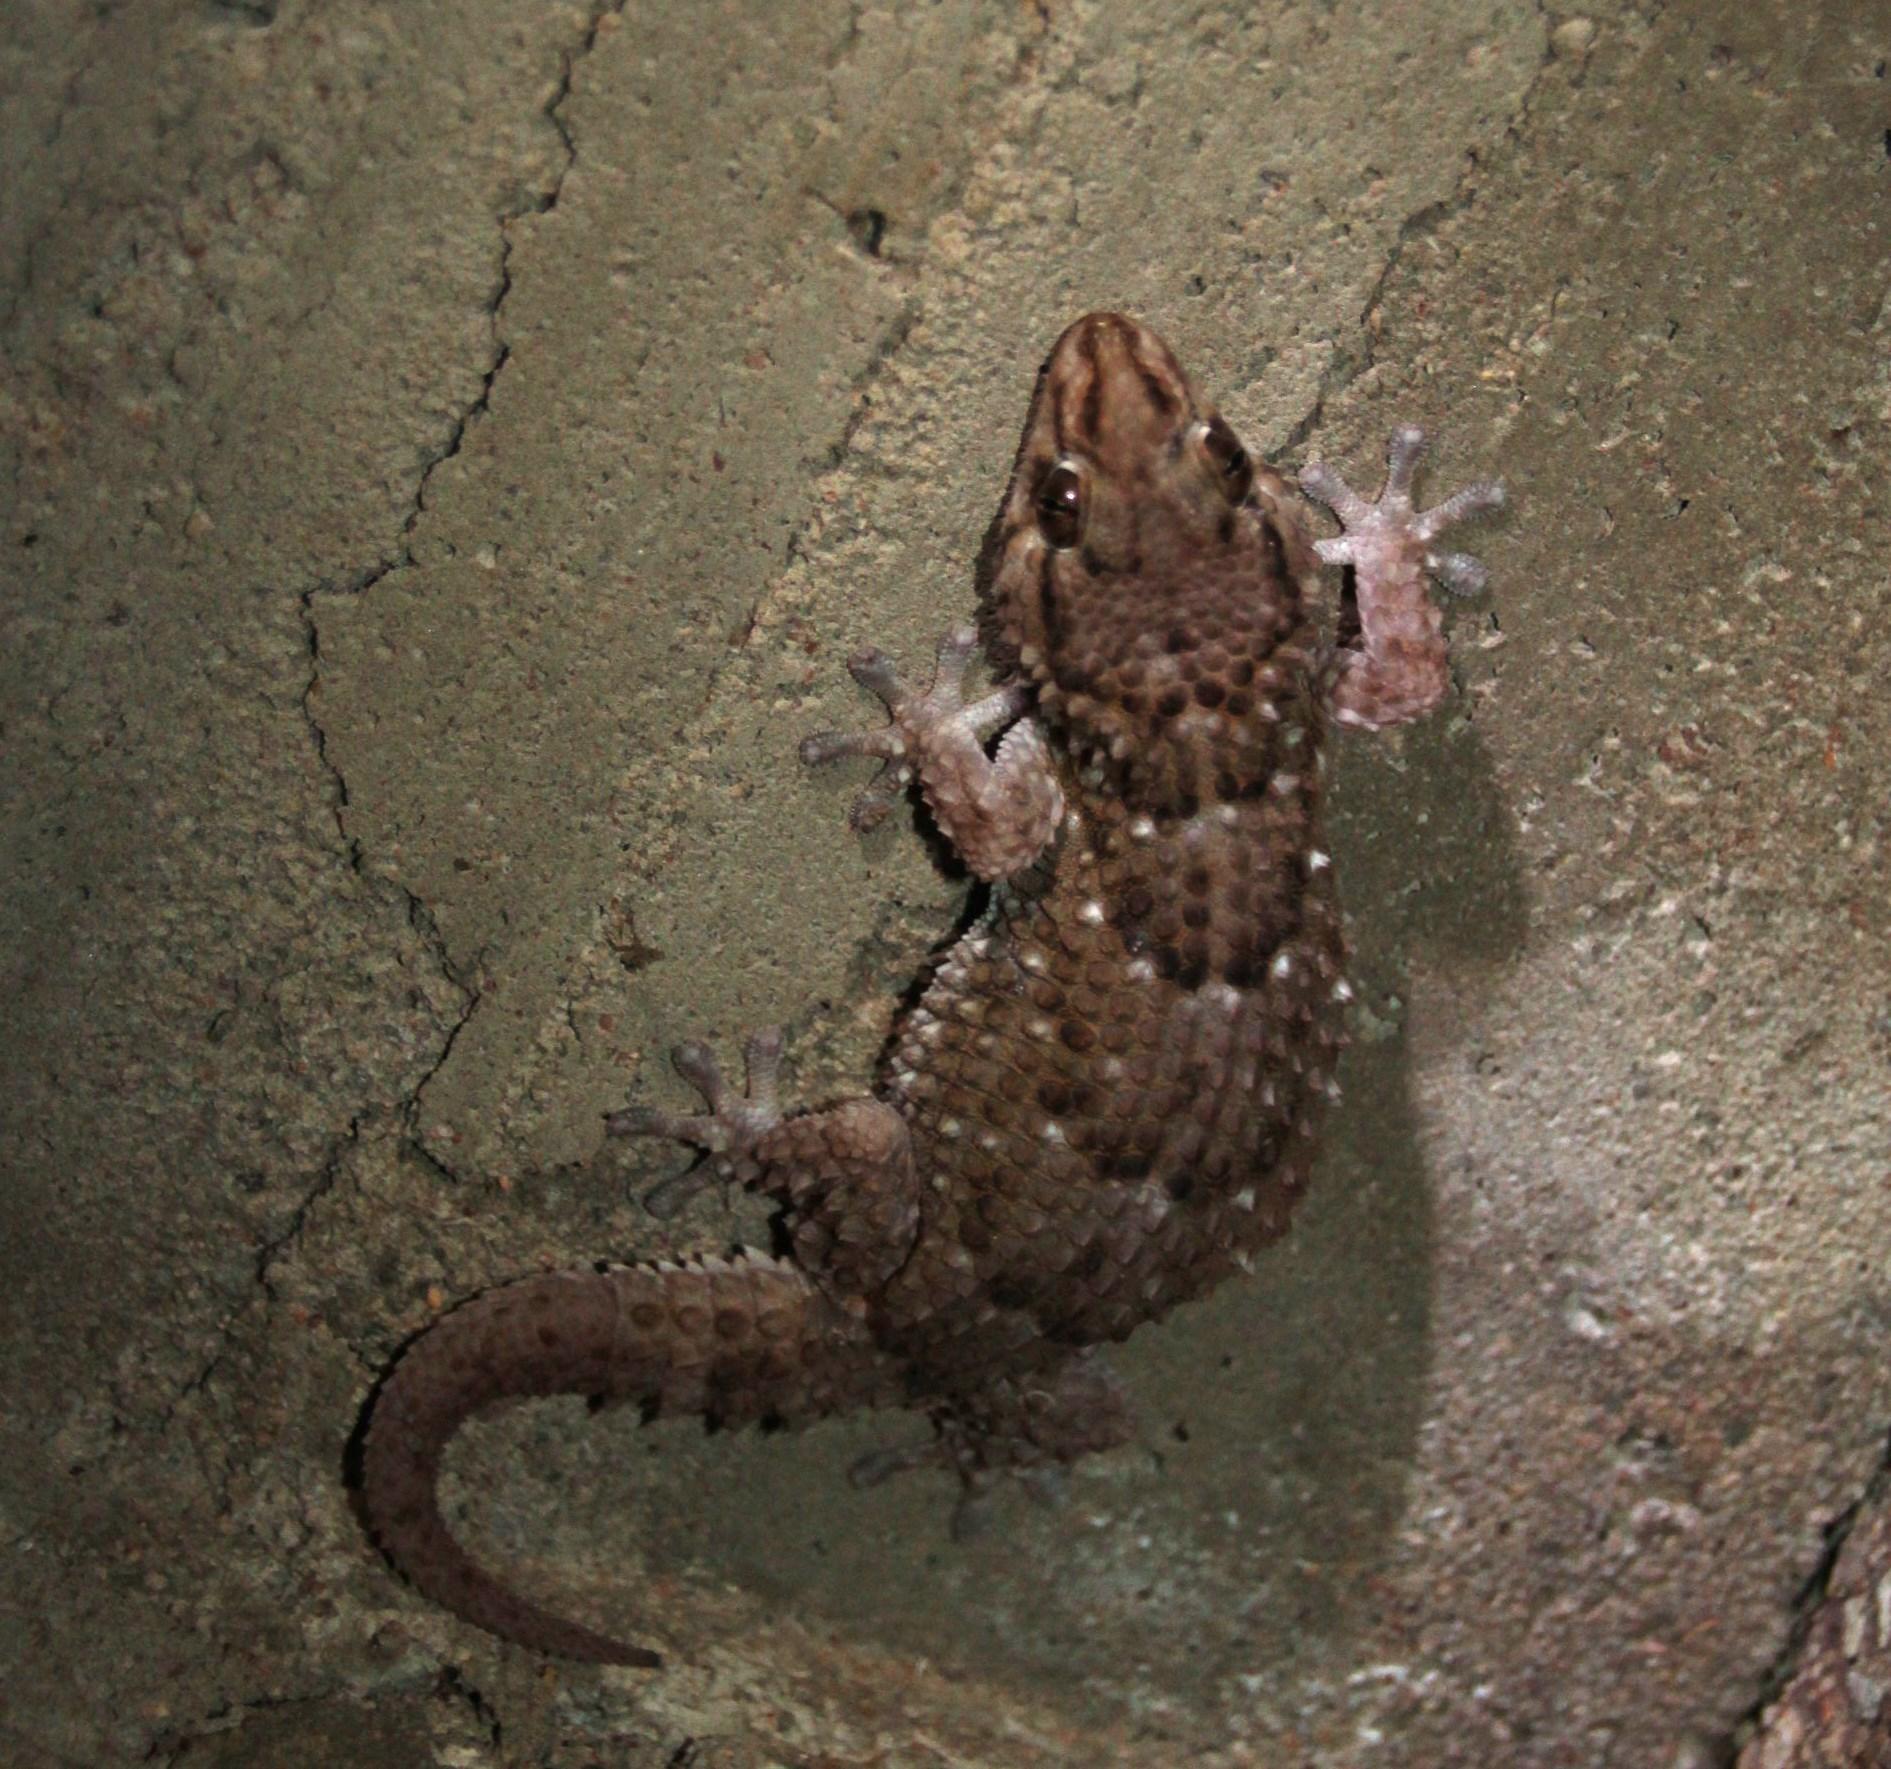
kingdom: Animalia
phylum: Chordata
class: Squamata
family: Gekkonidae
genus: Chondrodactylus
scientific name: Chondrodactylus bibronii
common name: Bibron's gecko
